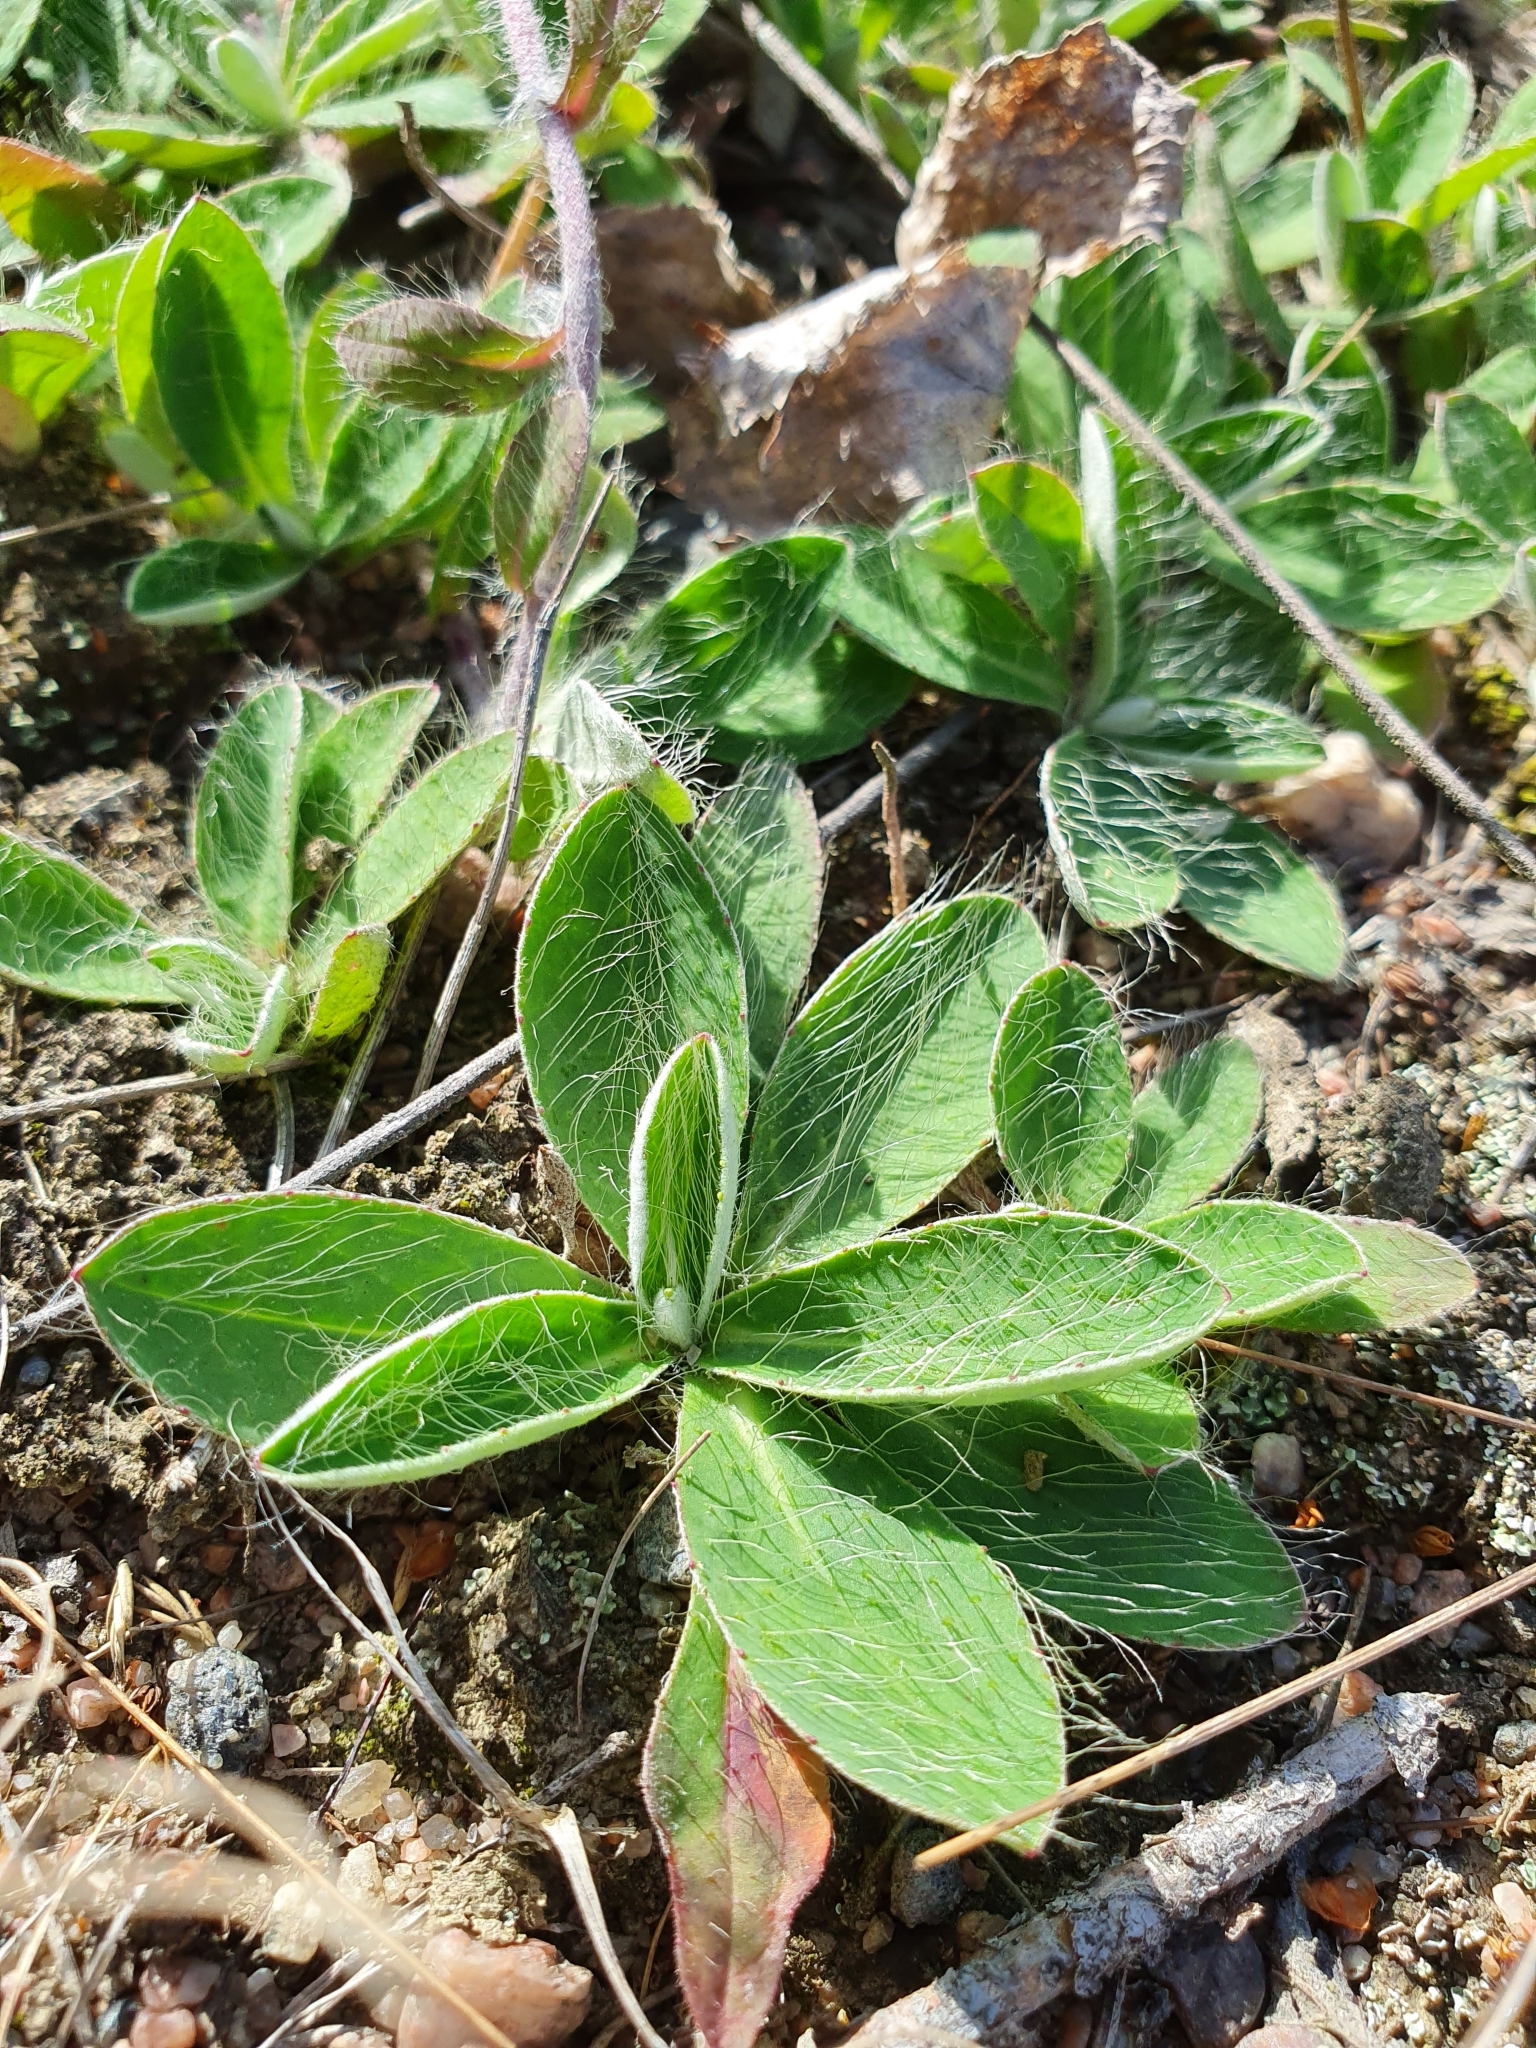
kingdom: Plantae
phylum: Tracheophyta
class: Magnoliopsida
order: Asterales
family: Asteraceae
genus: Pilosella
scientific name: Pilosella officinarum
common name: Mouse-ear hawkweed
